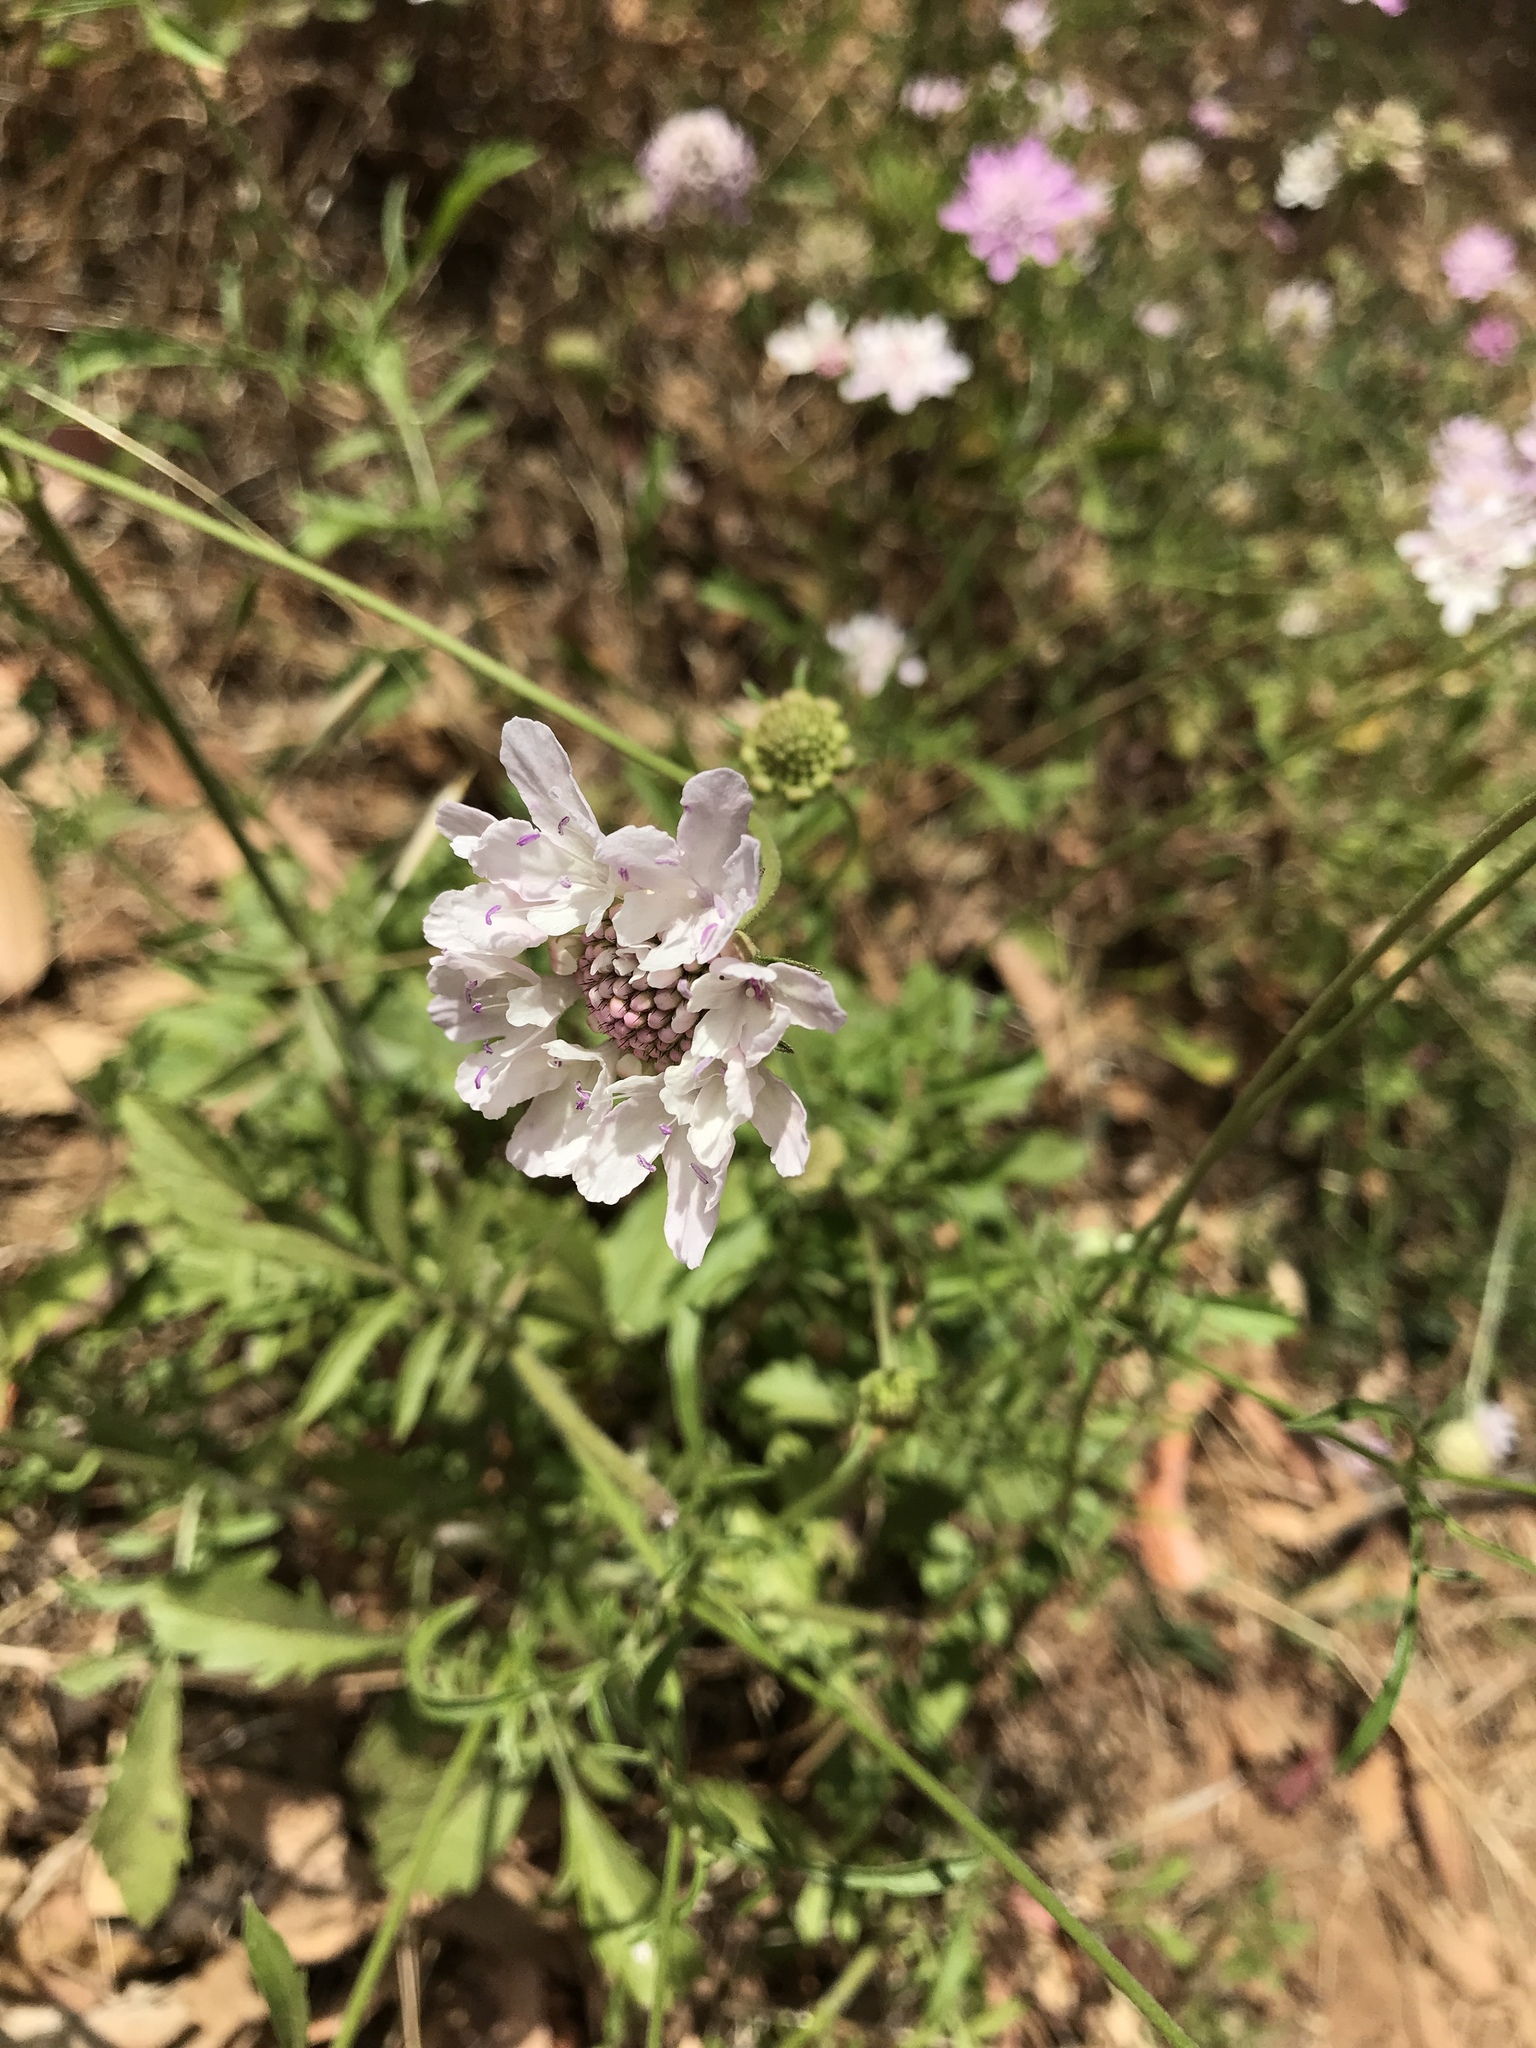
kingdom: Plantae
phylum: Tracheophyta
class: Magnoliopsida
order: Dipsacales
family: Caprifoliaceae
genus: Sixalix
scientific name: Sixalix atropurpurea
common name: Sweet scabious
